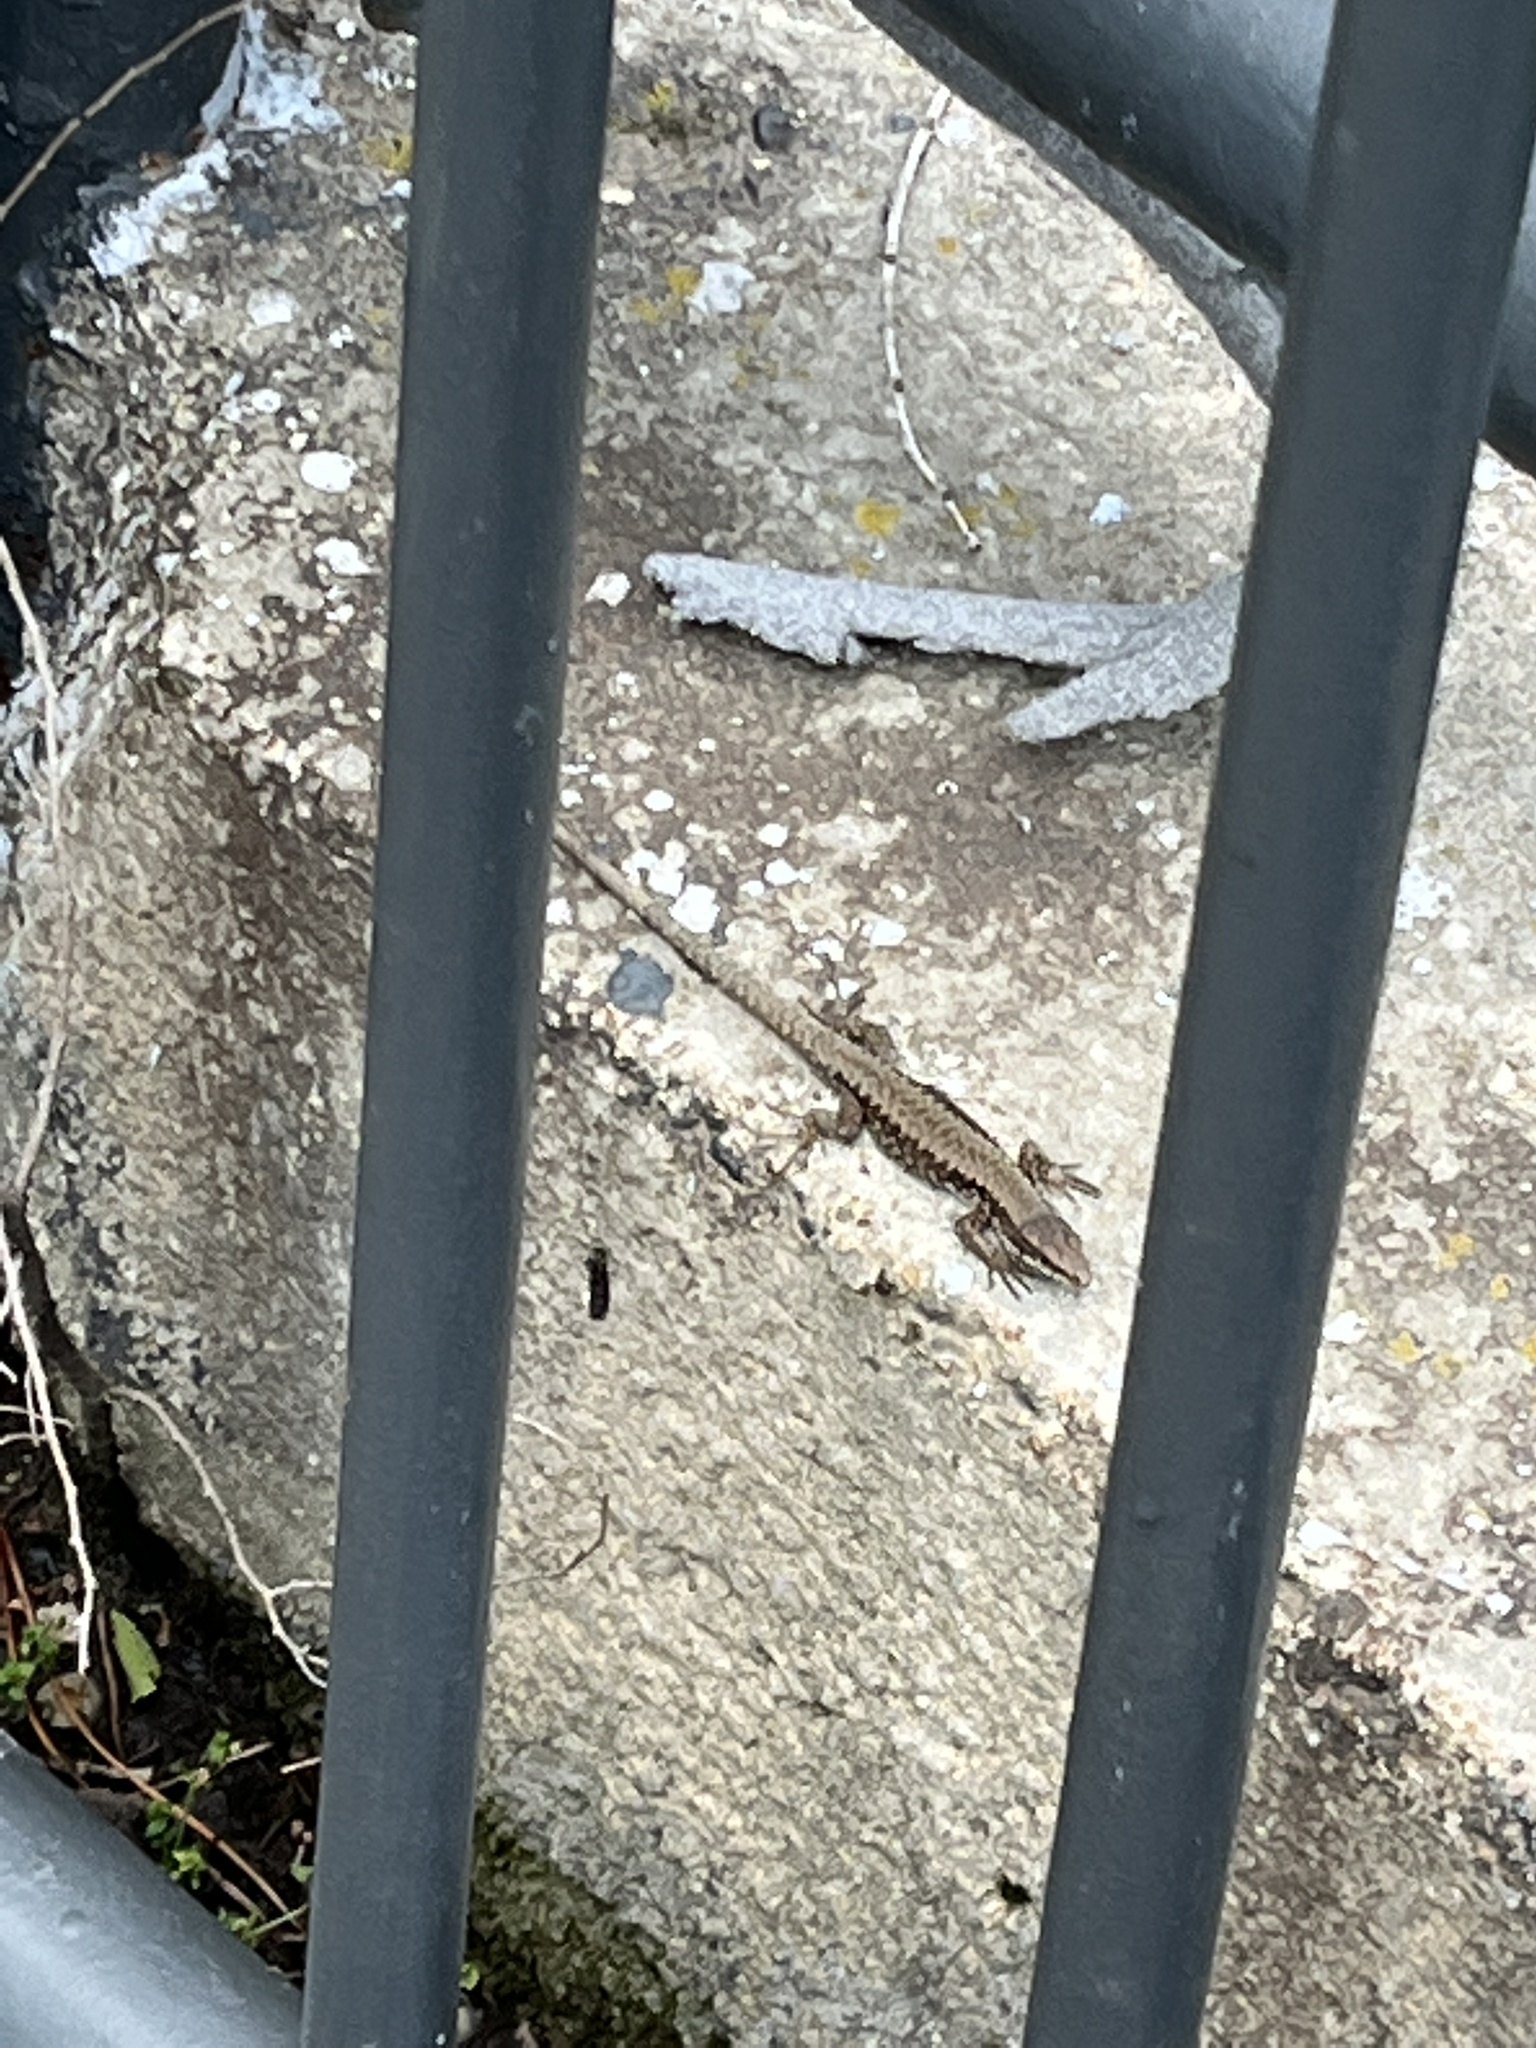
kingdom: Animalia
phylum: Chordata
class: Squamata
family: Lacertidae
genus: Podarcis
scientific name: Podarcis muralis
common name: Common wall lizard
